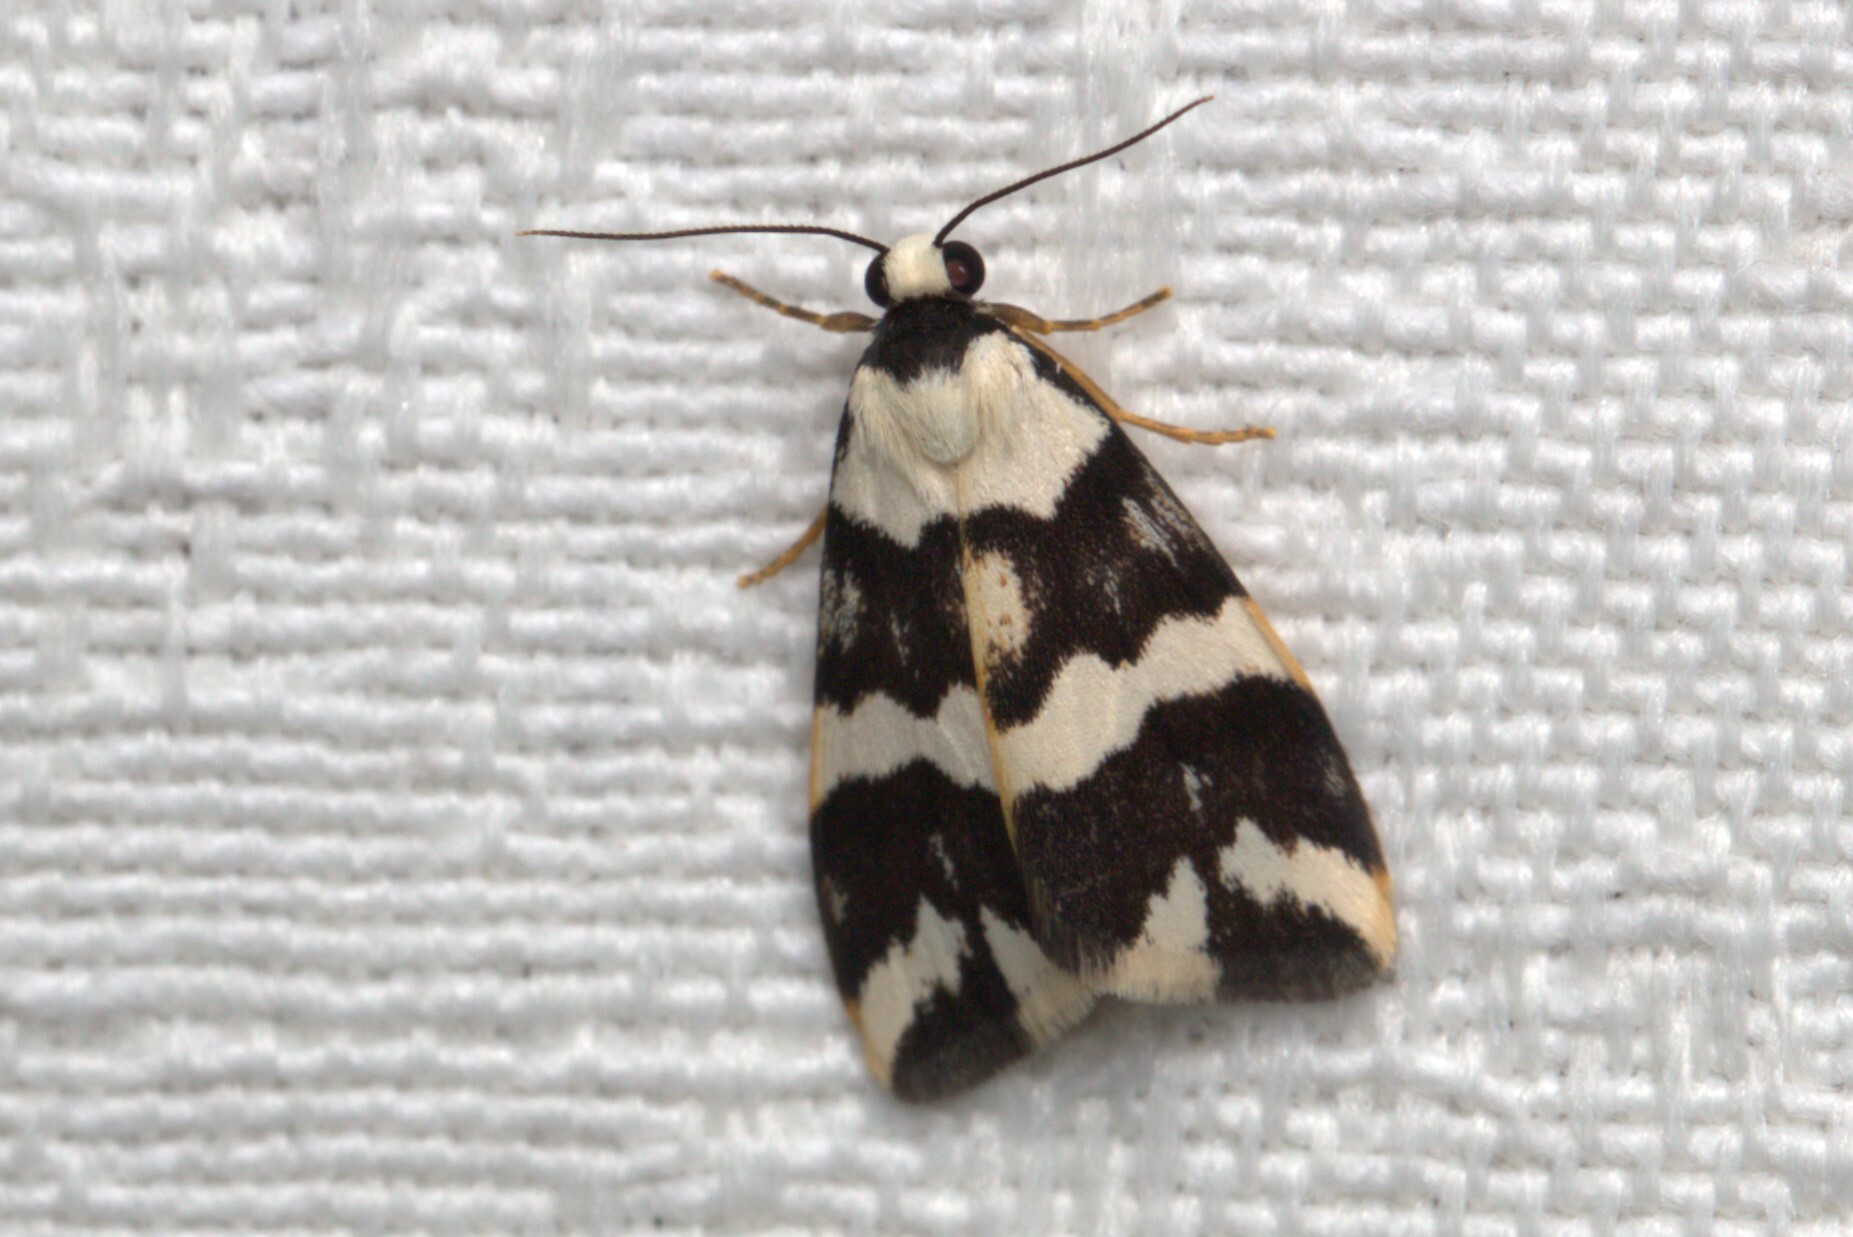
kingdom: Animalia
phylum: Arthropoda
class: Insecta
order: Lepidoptera
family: Erebidae
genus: Termessa
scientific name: Termessa gratiosa
